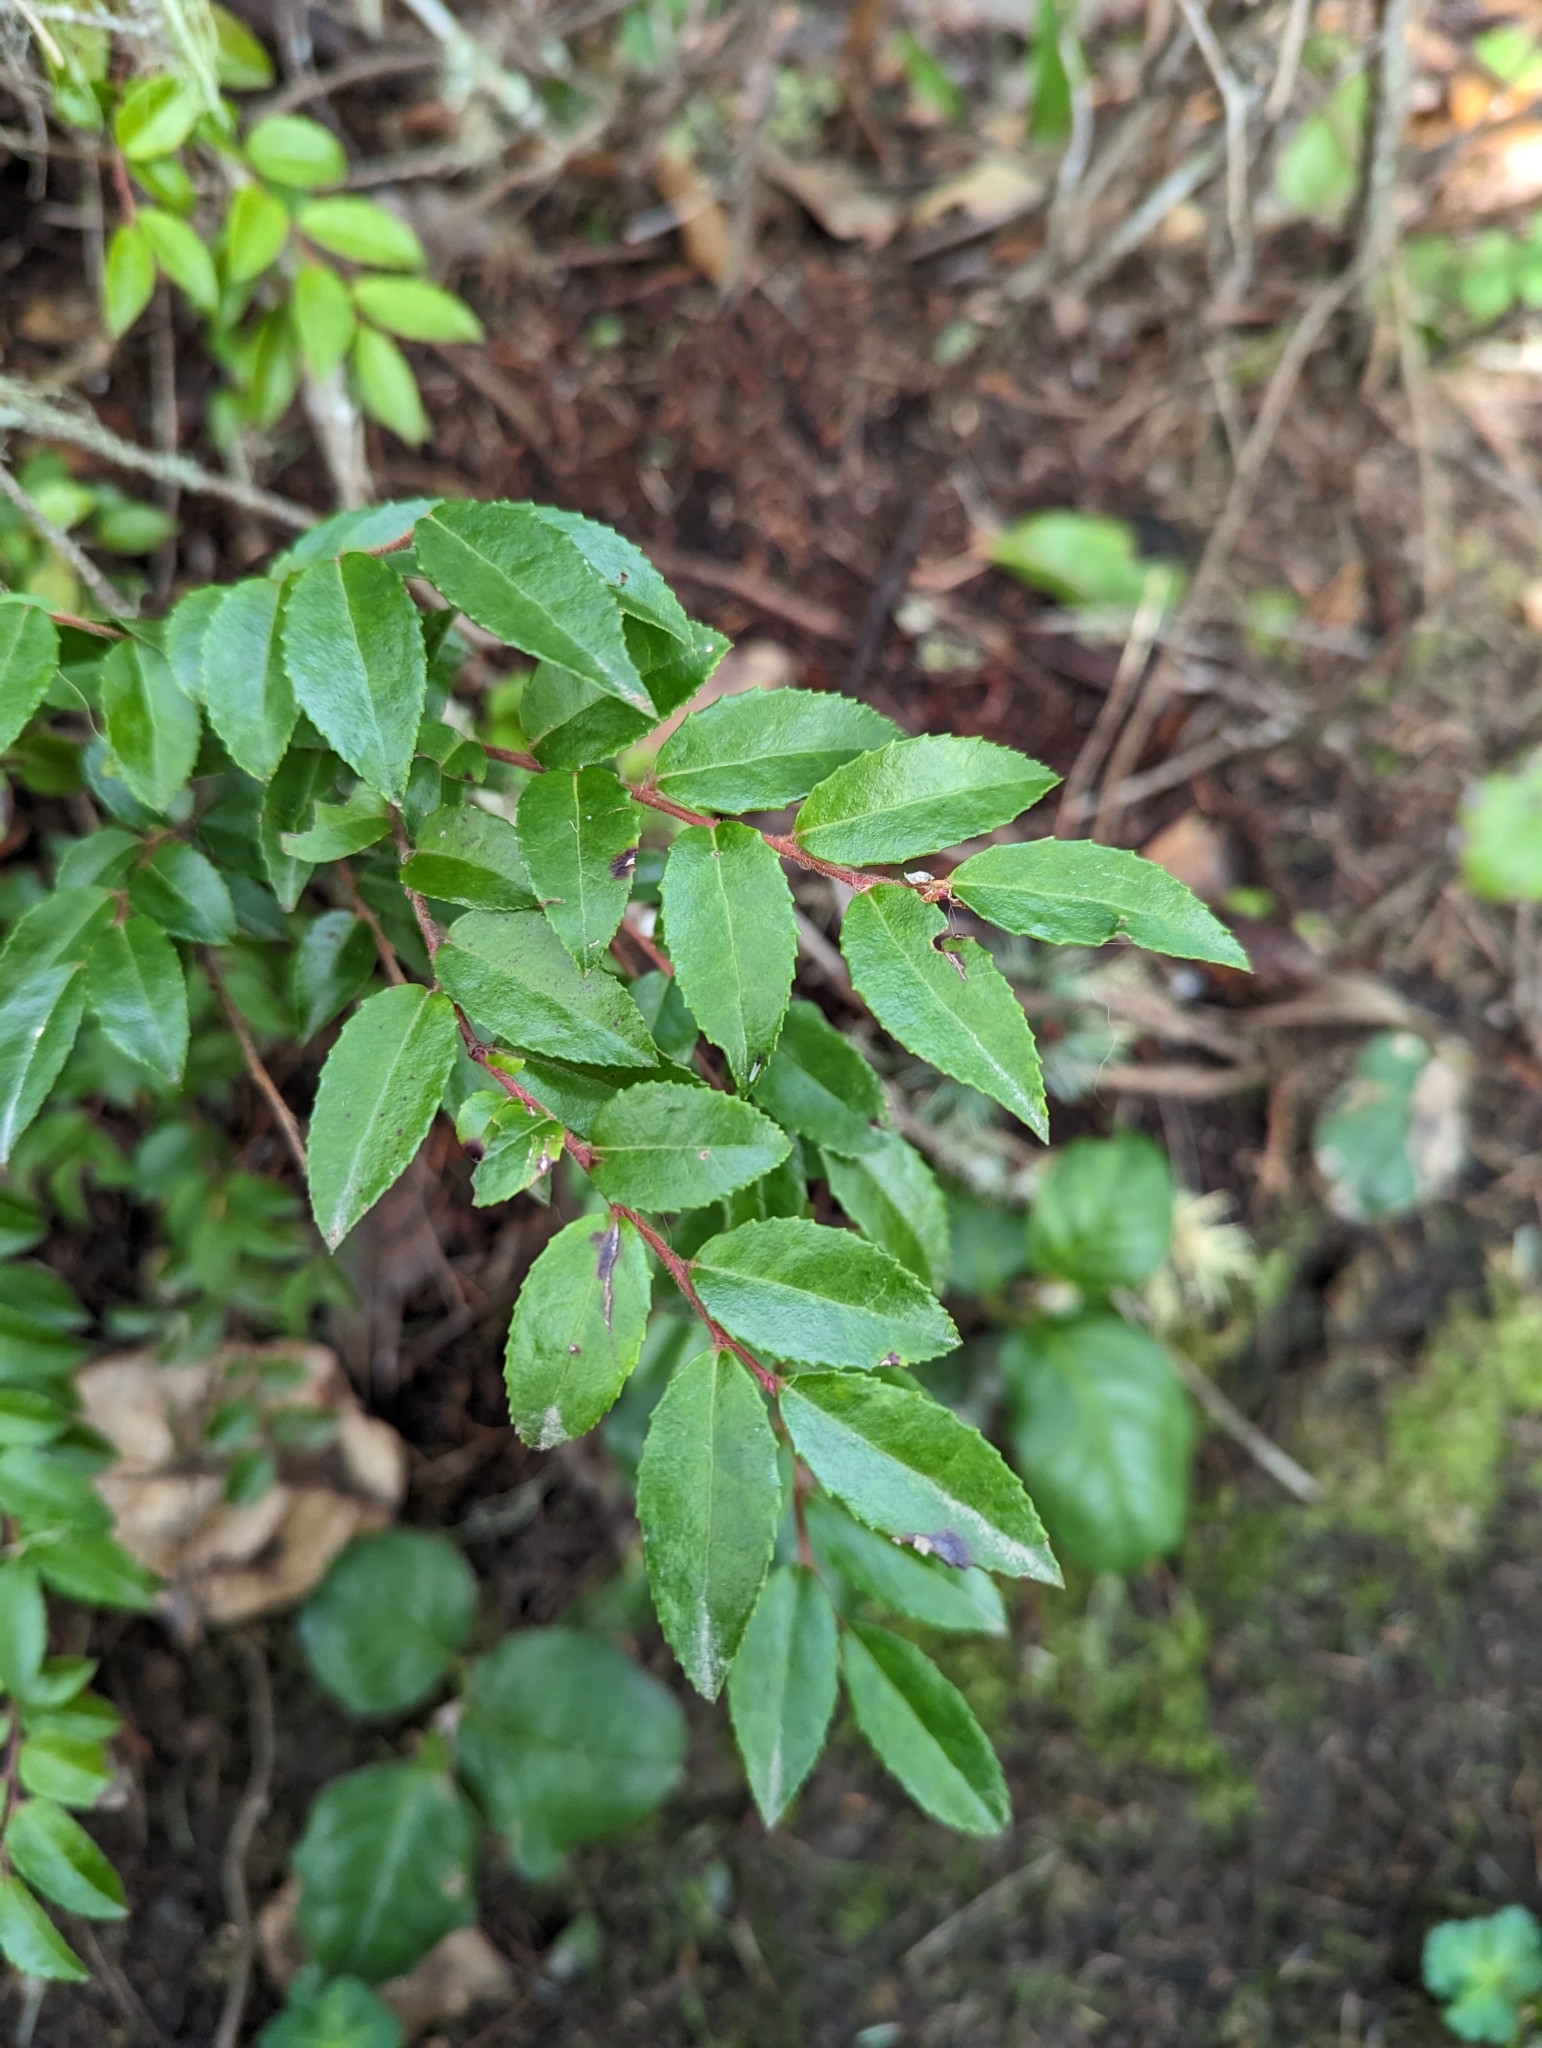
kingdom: Plantae
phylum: Tracheophyta
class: Magnoliopsida
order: Ericales
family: Ericaceae
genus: Vaccinium
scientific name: Vaccinium ovatum
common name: California-huckleberry
